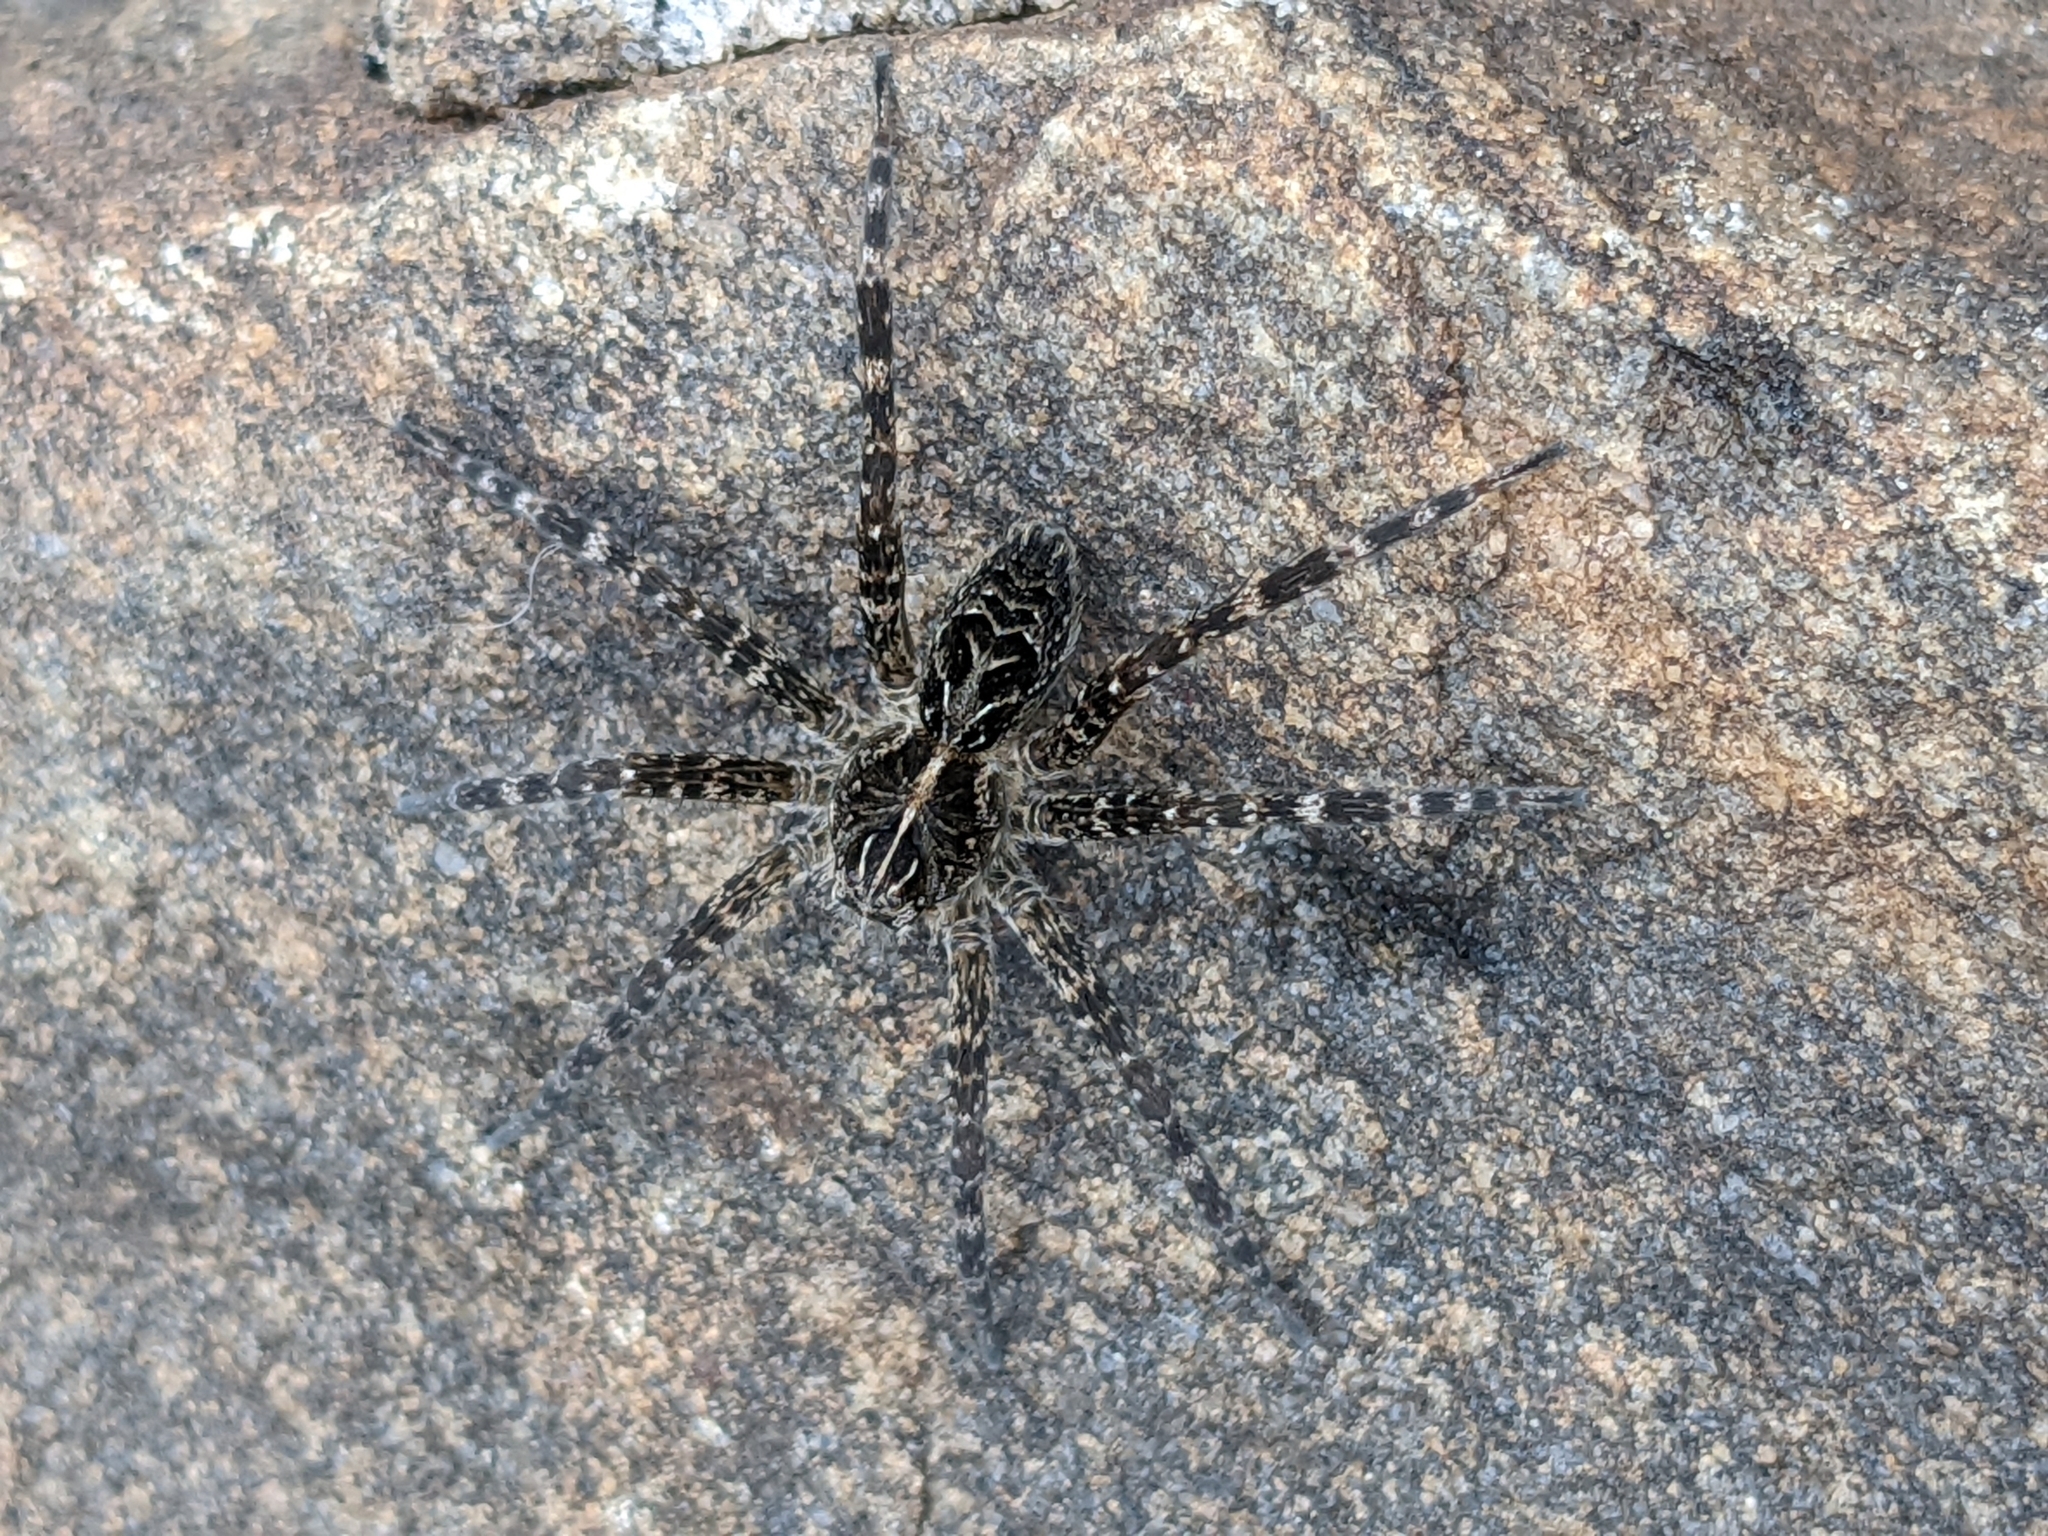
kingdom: Animalia
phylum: Arthropoda
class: Arachnida
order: Araneae
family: Pisauridae
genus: Dolomedes
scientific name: Dolomedes scriptus
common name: Striped fishing spider
